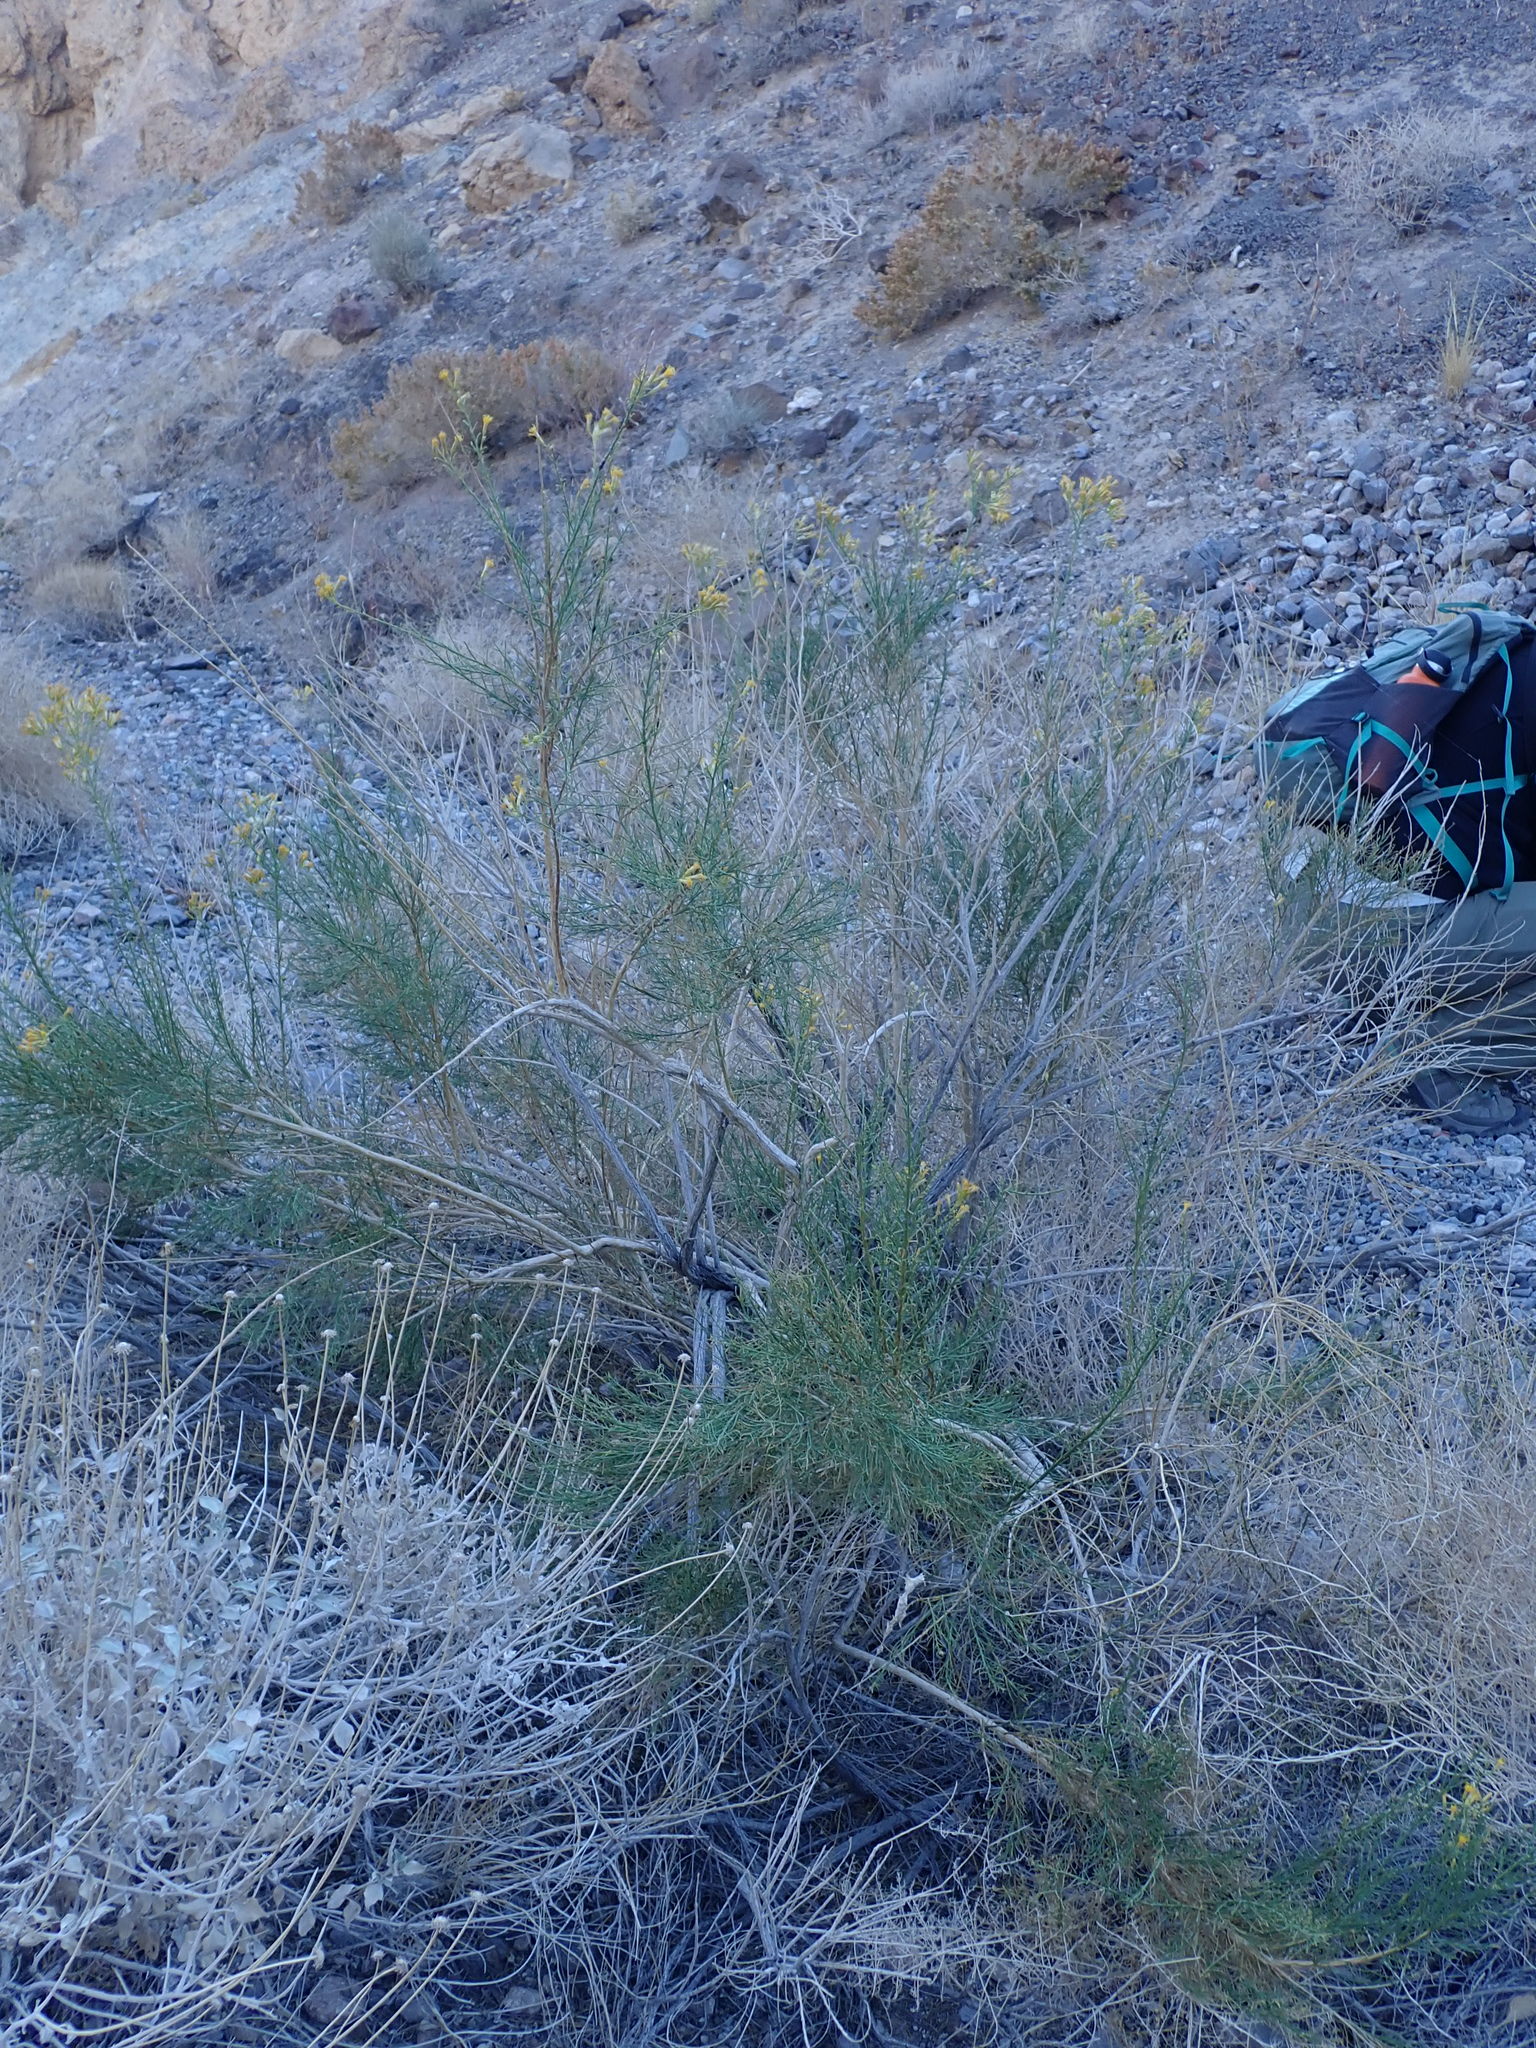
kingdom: Plantae
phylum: Tracheophyta
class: Magnoliopsida
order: Asterales
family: Asteraceae
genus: Ericameria
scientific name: Ericameria paniculata
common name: Punctate rabbitbrush
